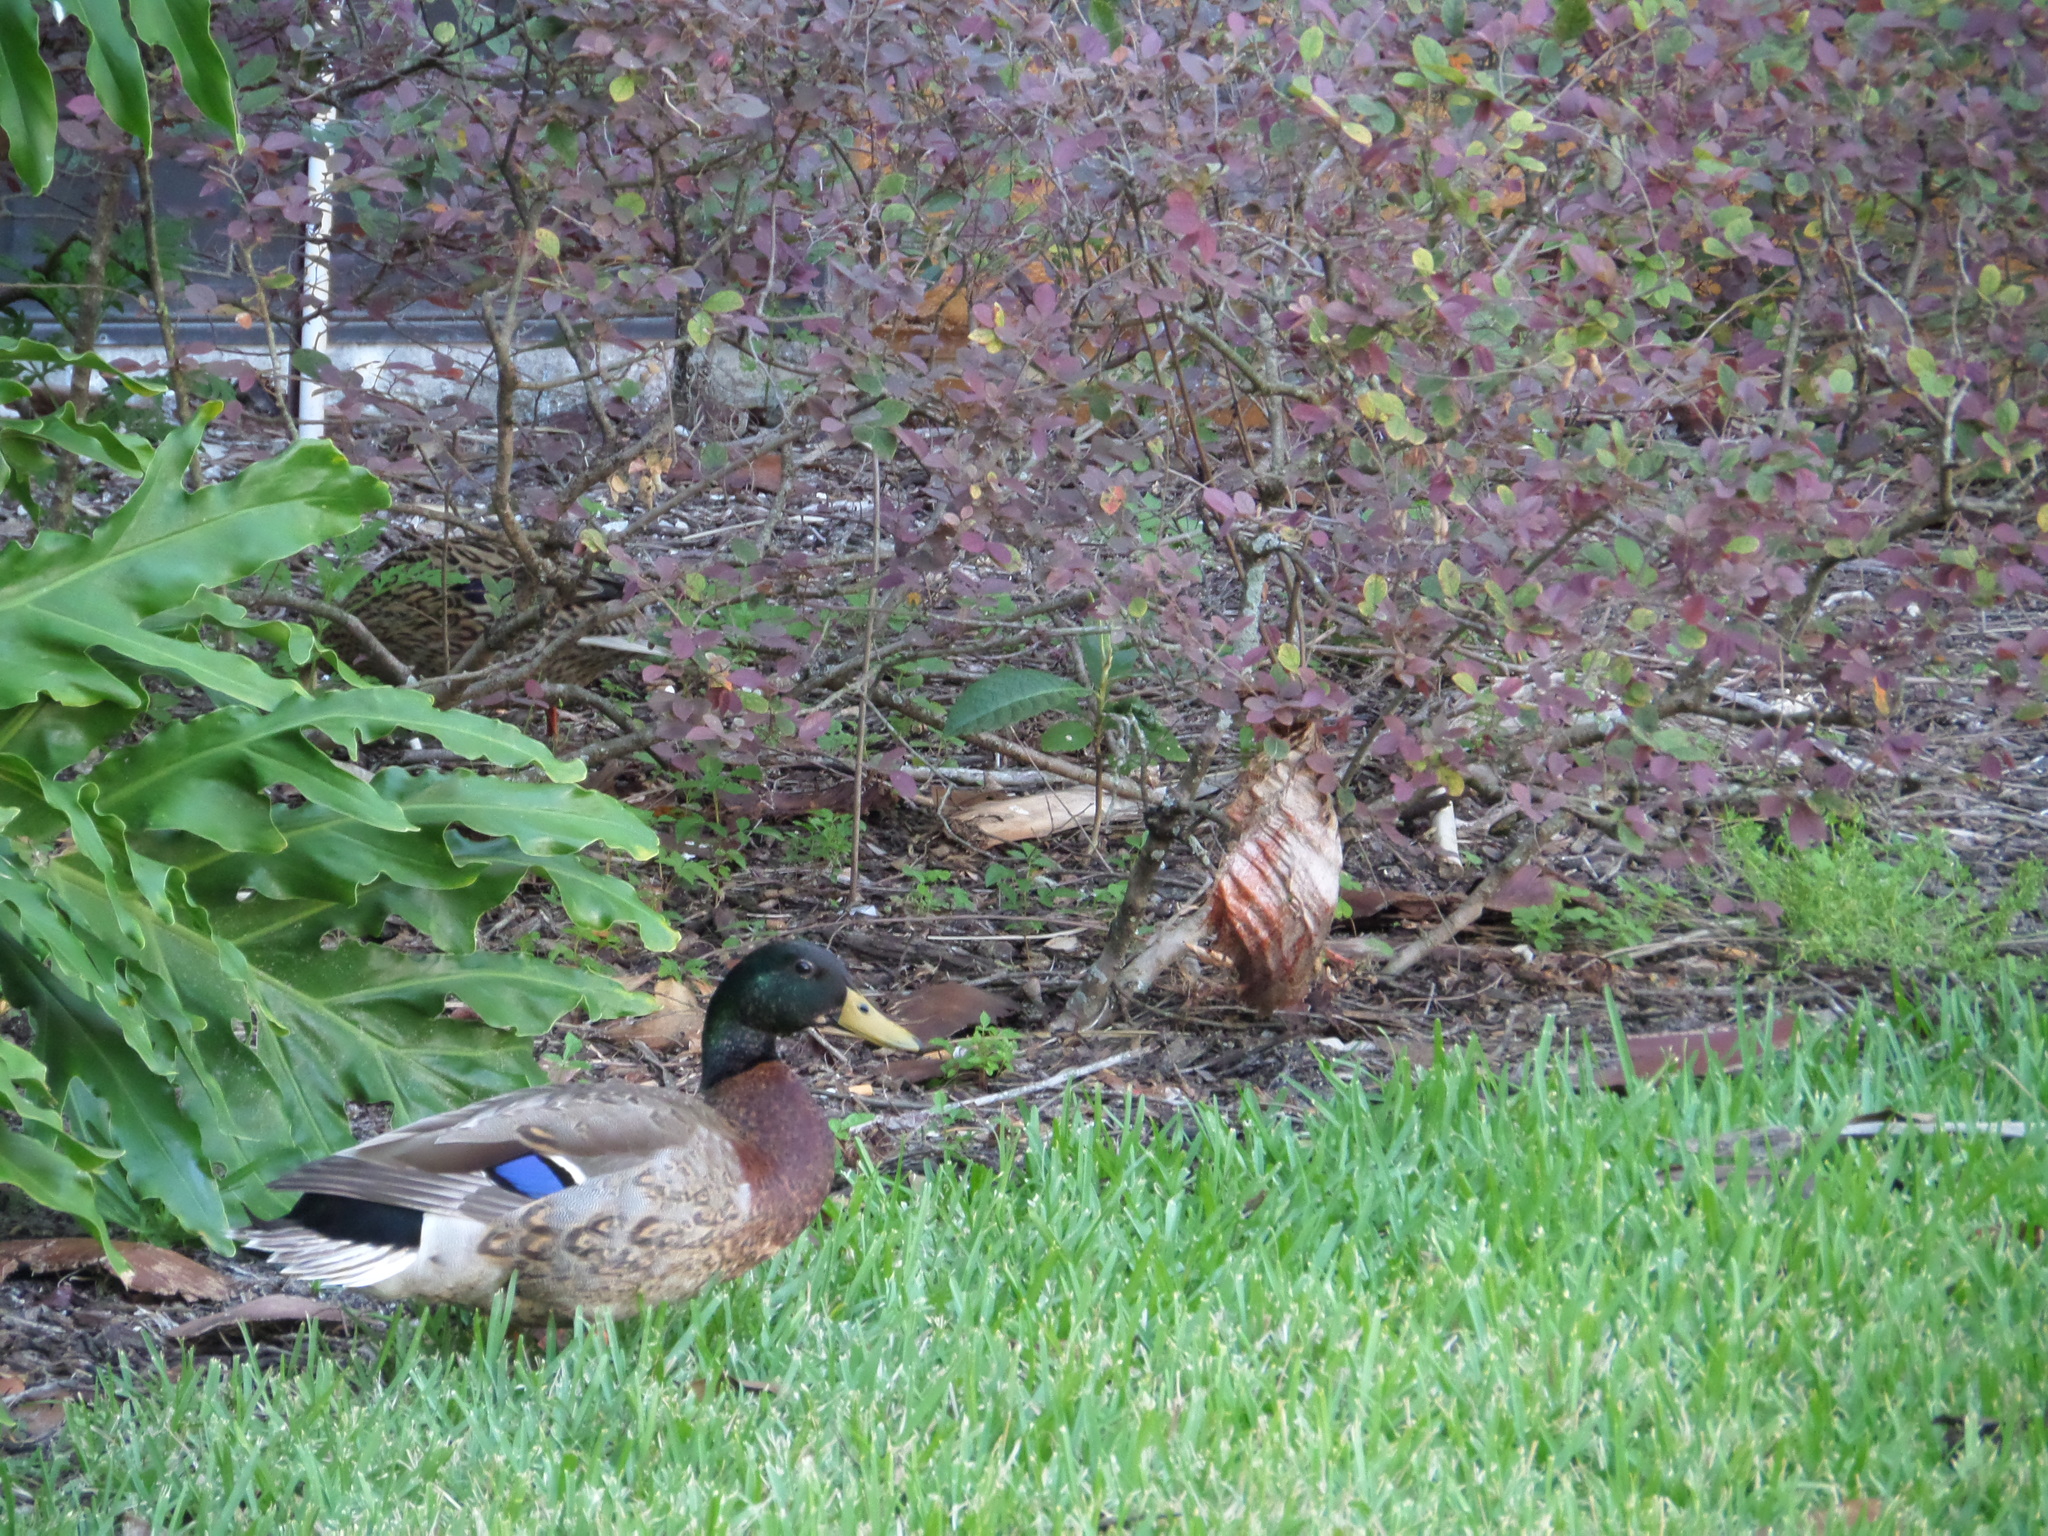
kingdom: Animalia
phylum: Chordata
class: Aves
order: Anseriformes
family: Anatidae
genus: Anas
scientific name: Anas platyrhynchos
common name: Mallard
